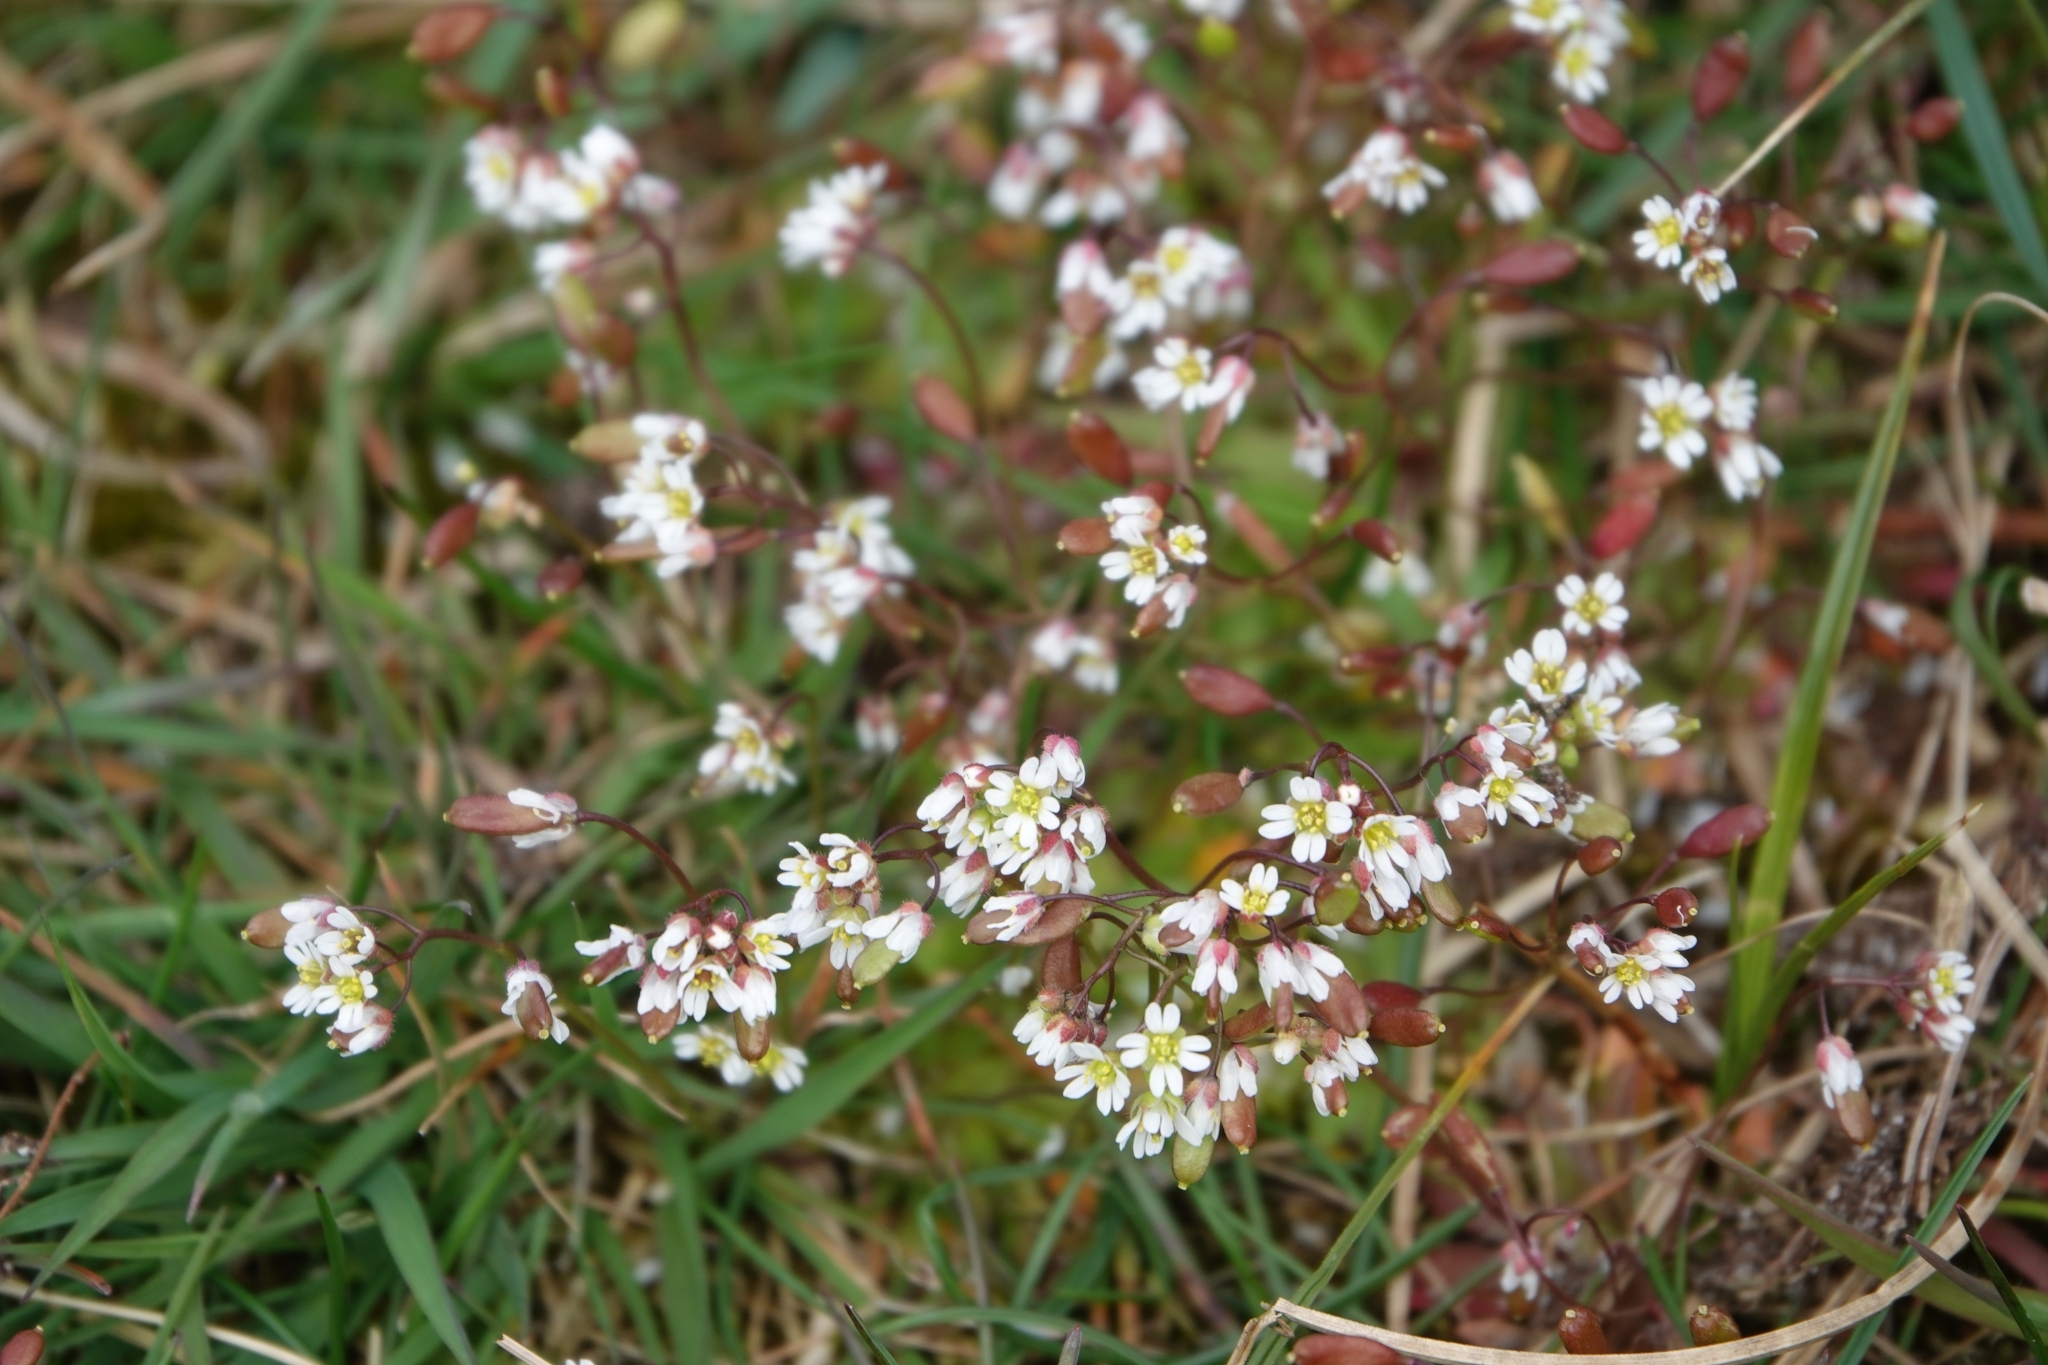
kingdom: Plantae
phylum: Tracheophyta
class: Magnoliopsida
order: Brassicales
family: Brassicaceae
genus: Draba
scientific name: Draba verna
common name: Spring draba
